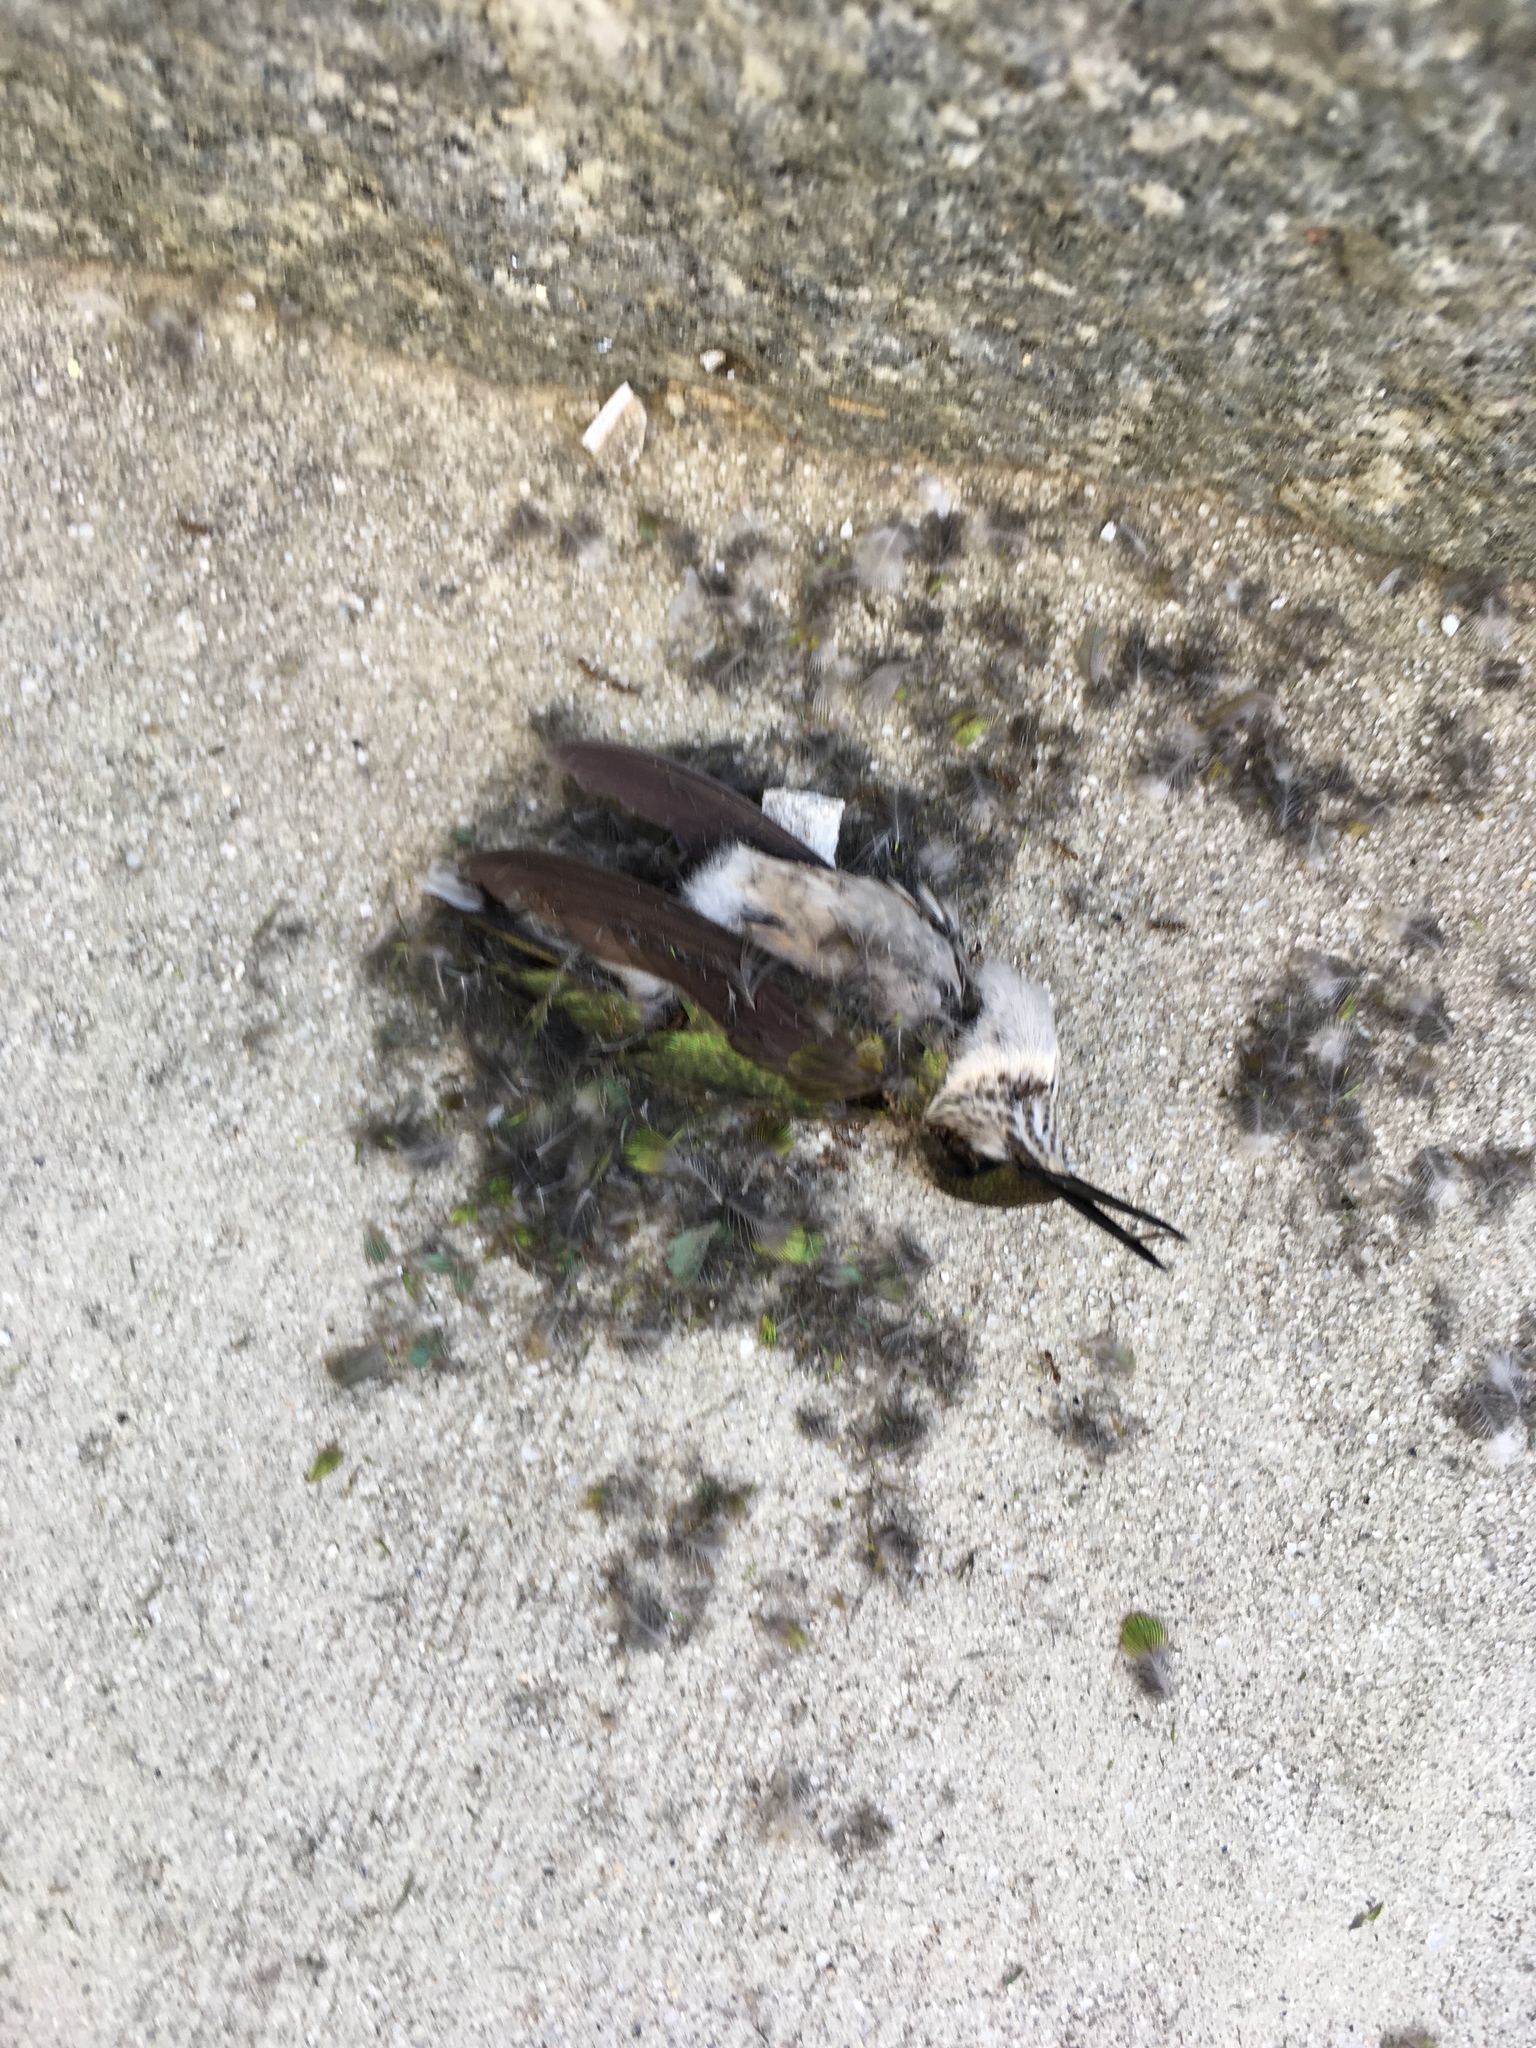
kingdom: Animalia
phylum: Chordata
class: Aves
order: Apodiformes
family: Trochilidae
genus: Archilochus
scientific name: Archilochus colubris
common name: Ruby-throated hummingbird
